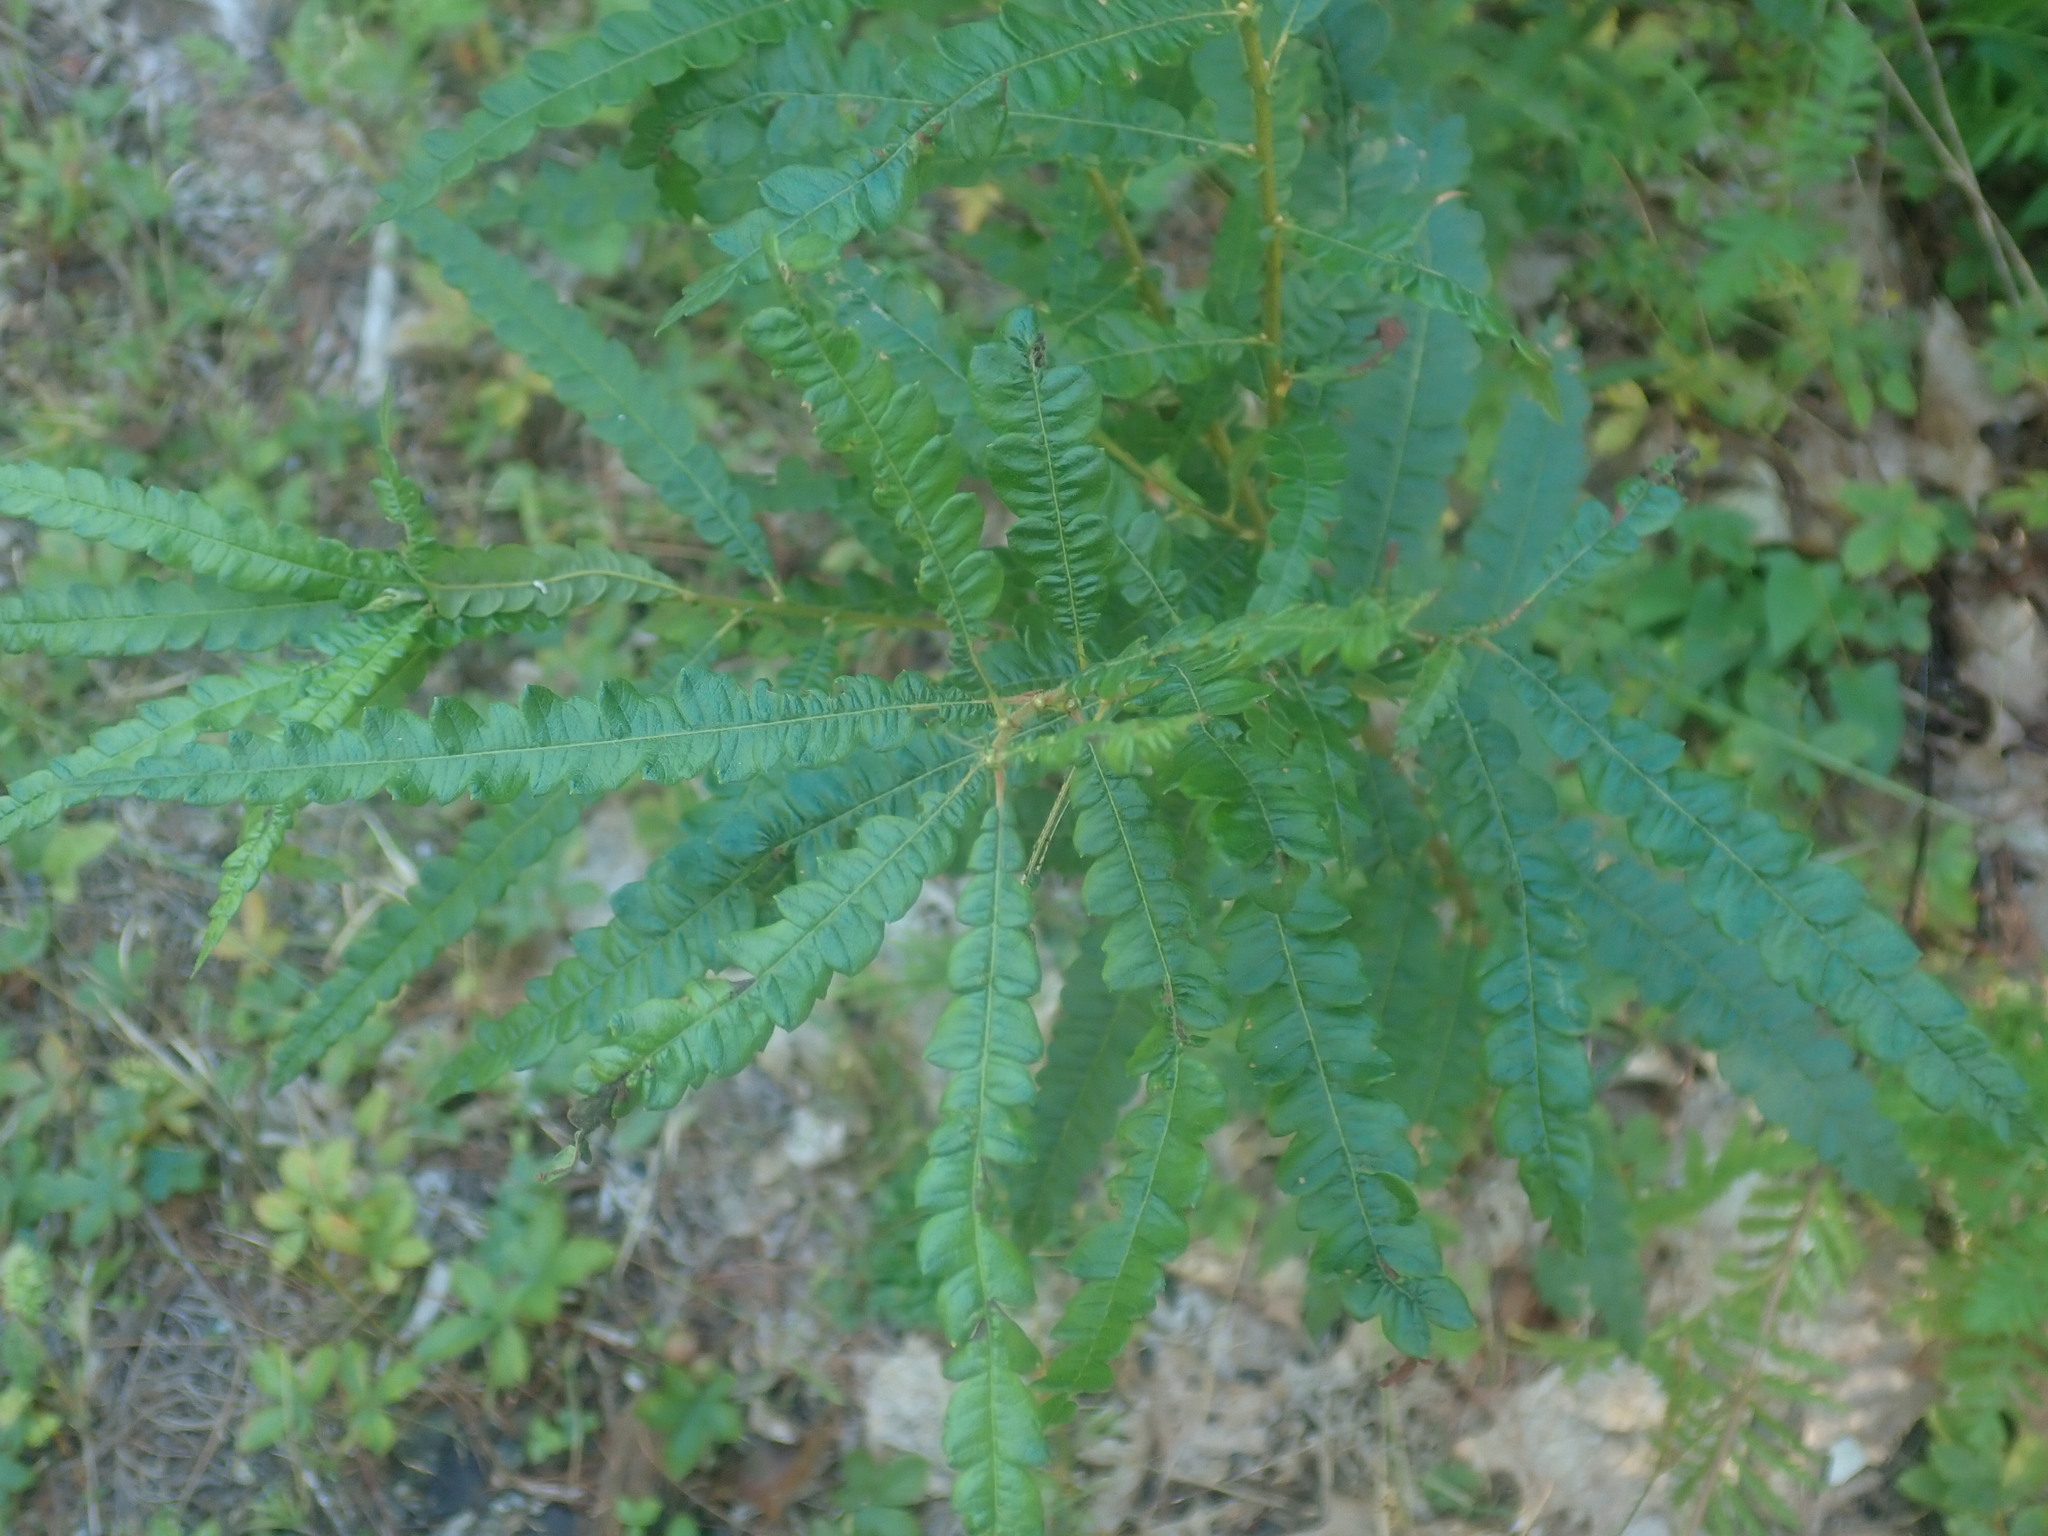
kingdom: Plantae
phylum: Tracheophyta
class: Magnoliopsida
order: Fagales
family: Myricaceae
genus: Comptonia
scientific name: Comptonia peregrina
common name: Sweet-fern
